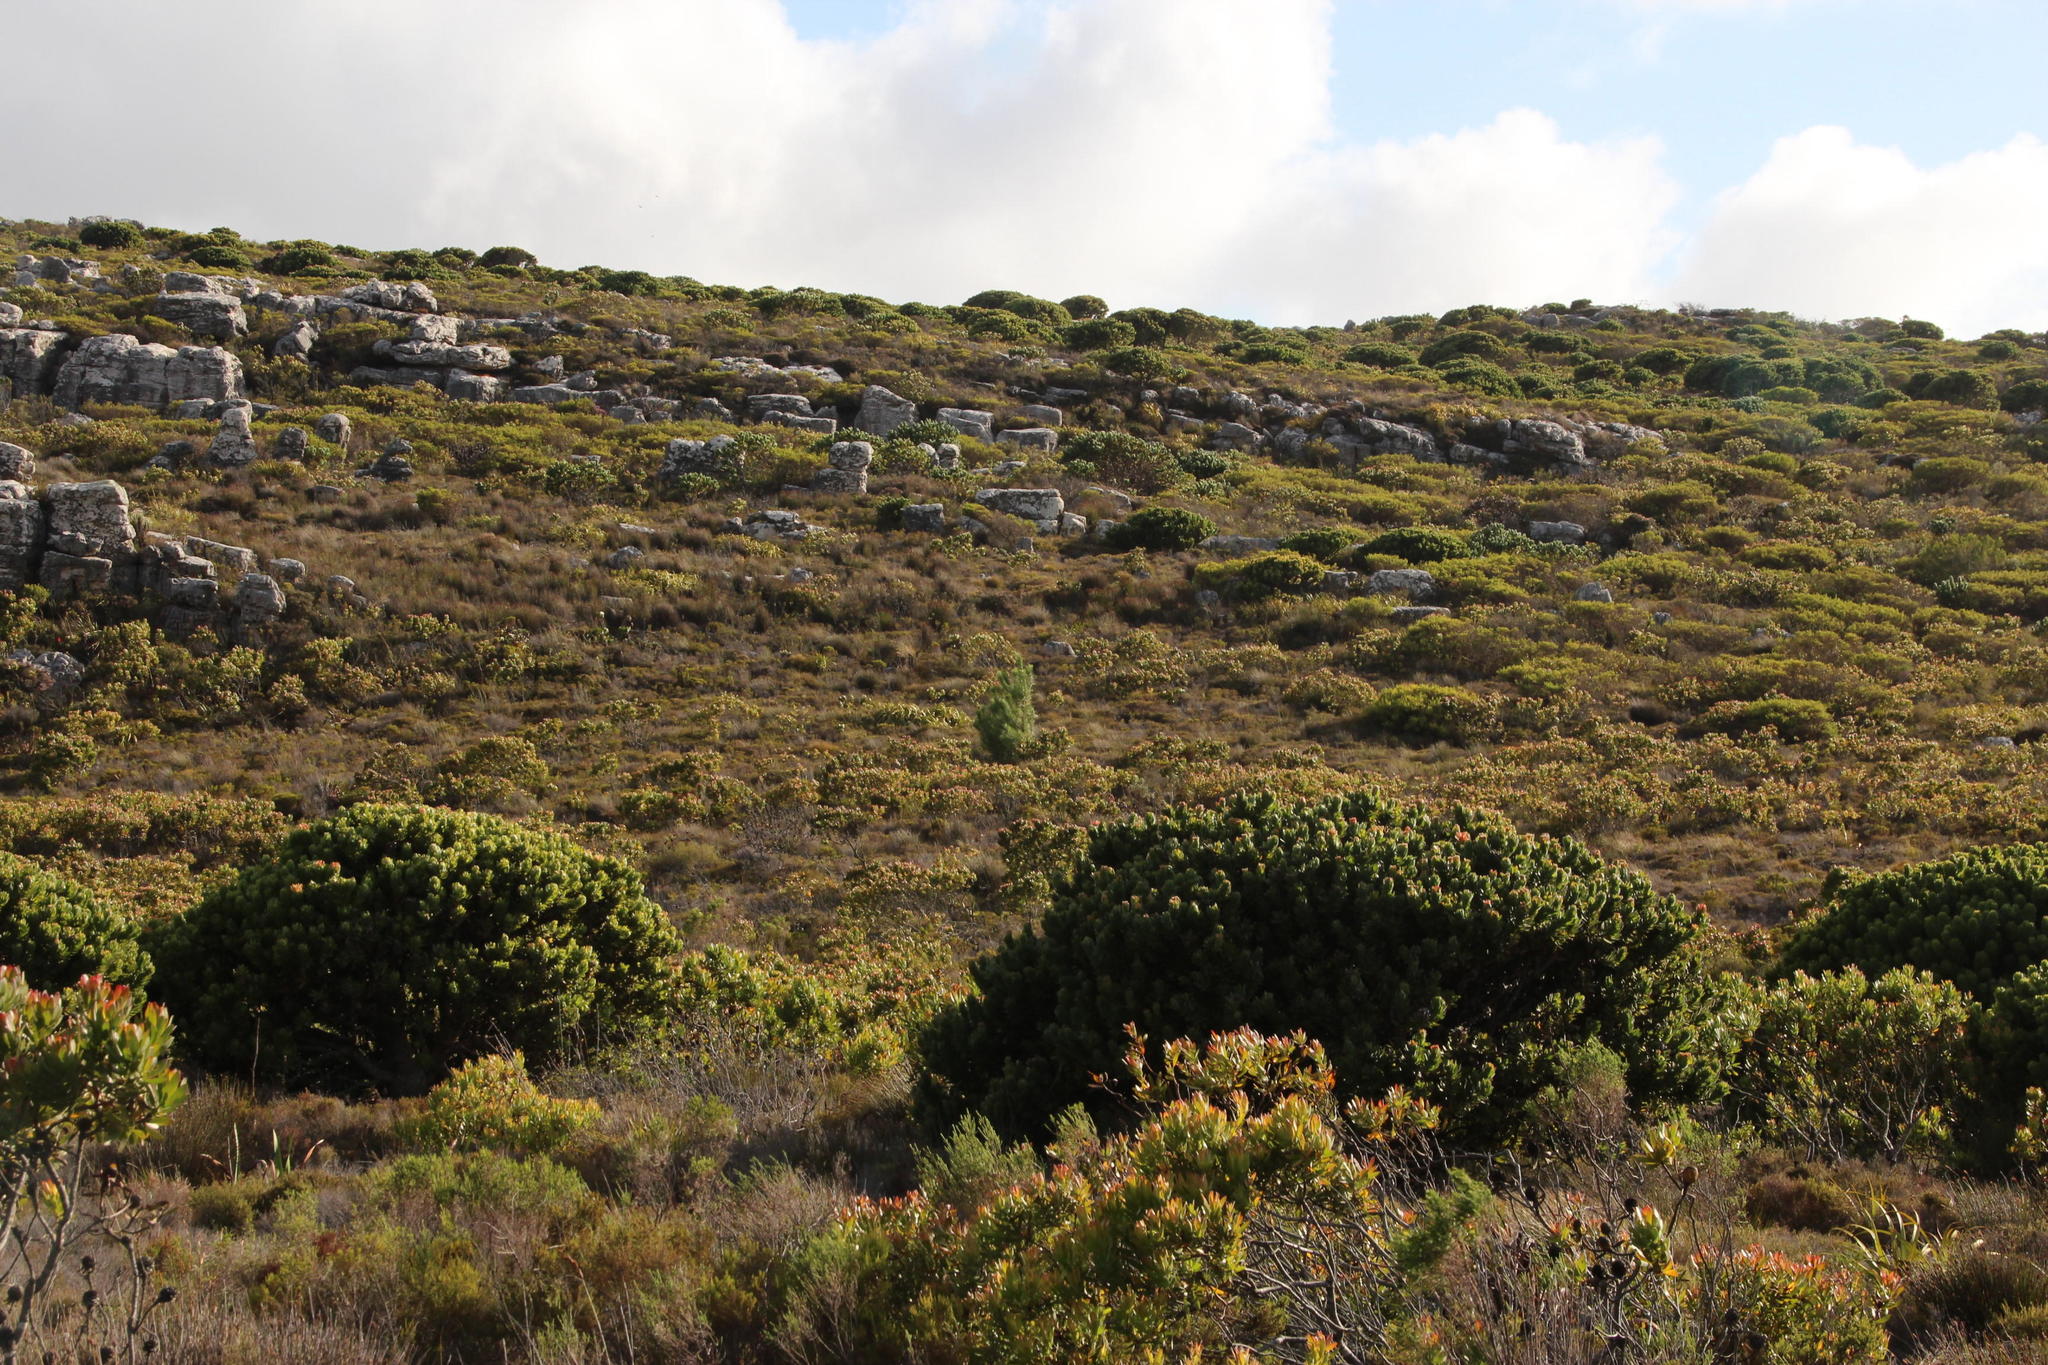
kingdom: Plantae
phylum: Tracheophyta
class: Magnoliopsida
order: Proteales
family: Proteaceae
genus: Mimetes
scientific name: Mimetes fimbriifolius
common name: Fringed bottlebrush
